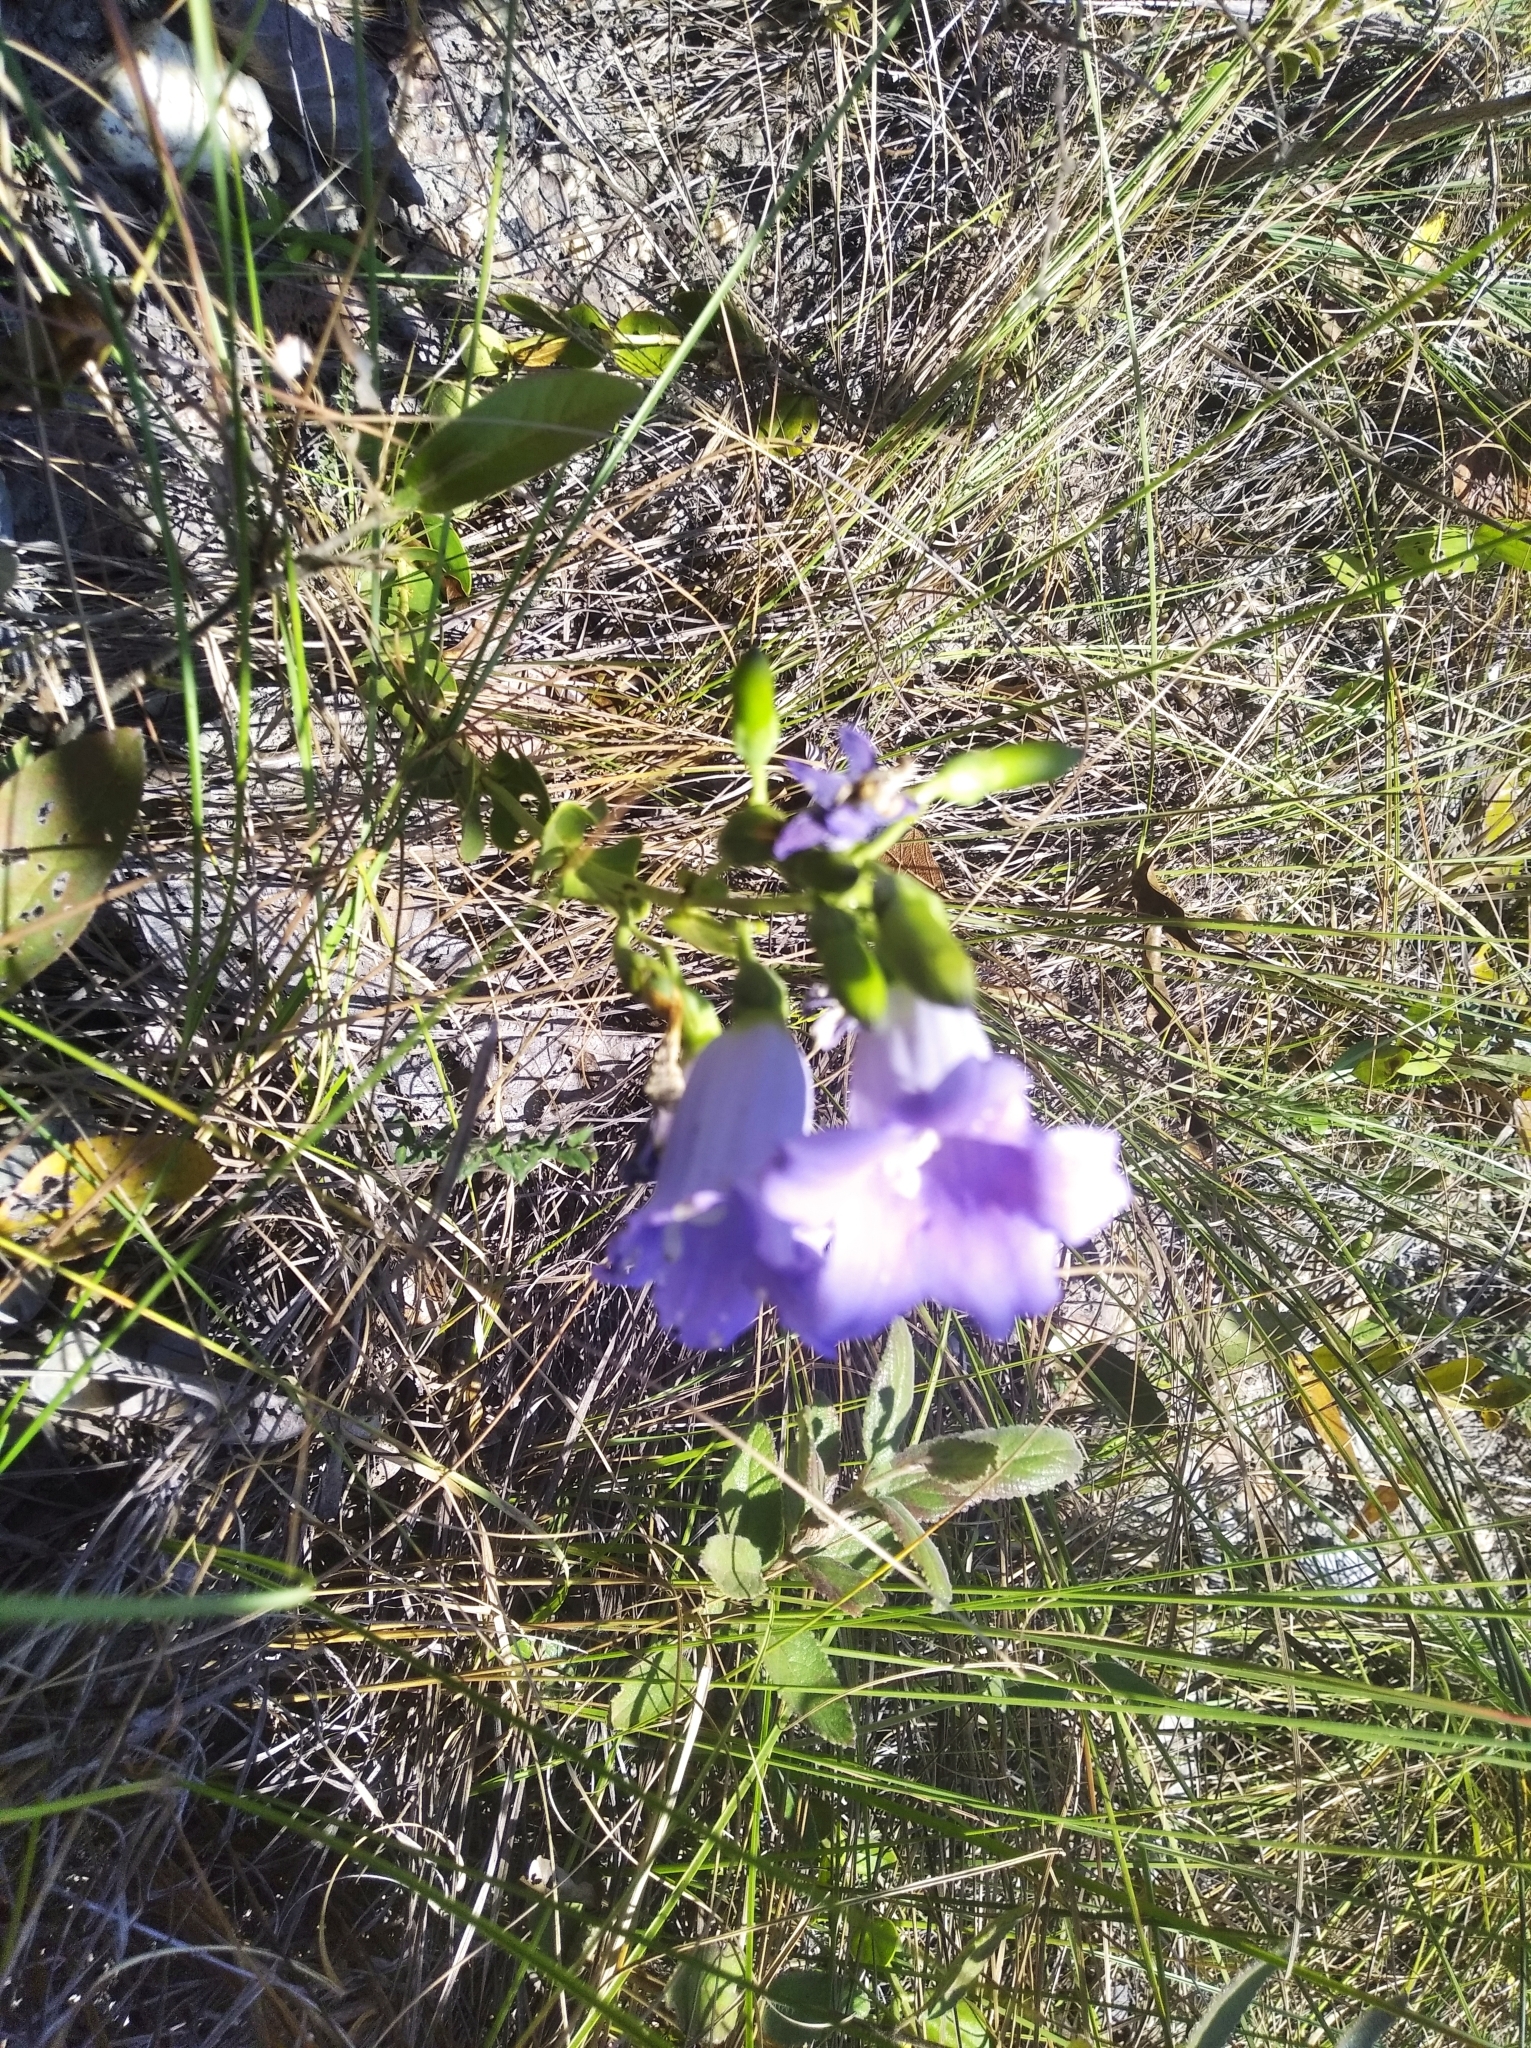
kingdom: Plantae
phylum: Tracheophyta
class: Magnoliopsida
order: Gentianales
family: Gentianaceae
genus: Calolisianthus
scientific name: Calolisianthus speciosus
